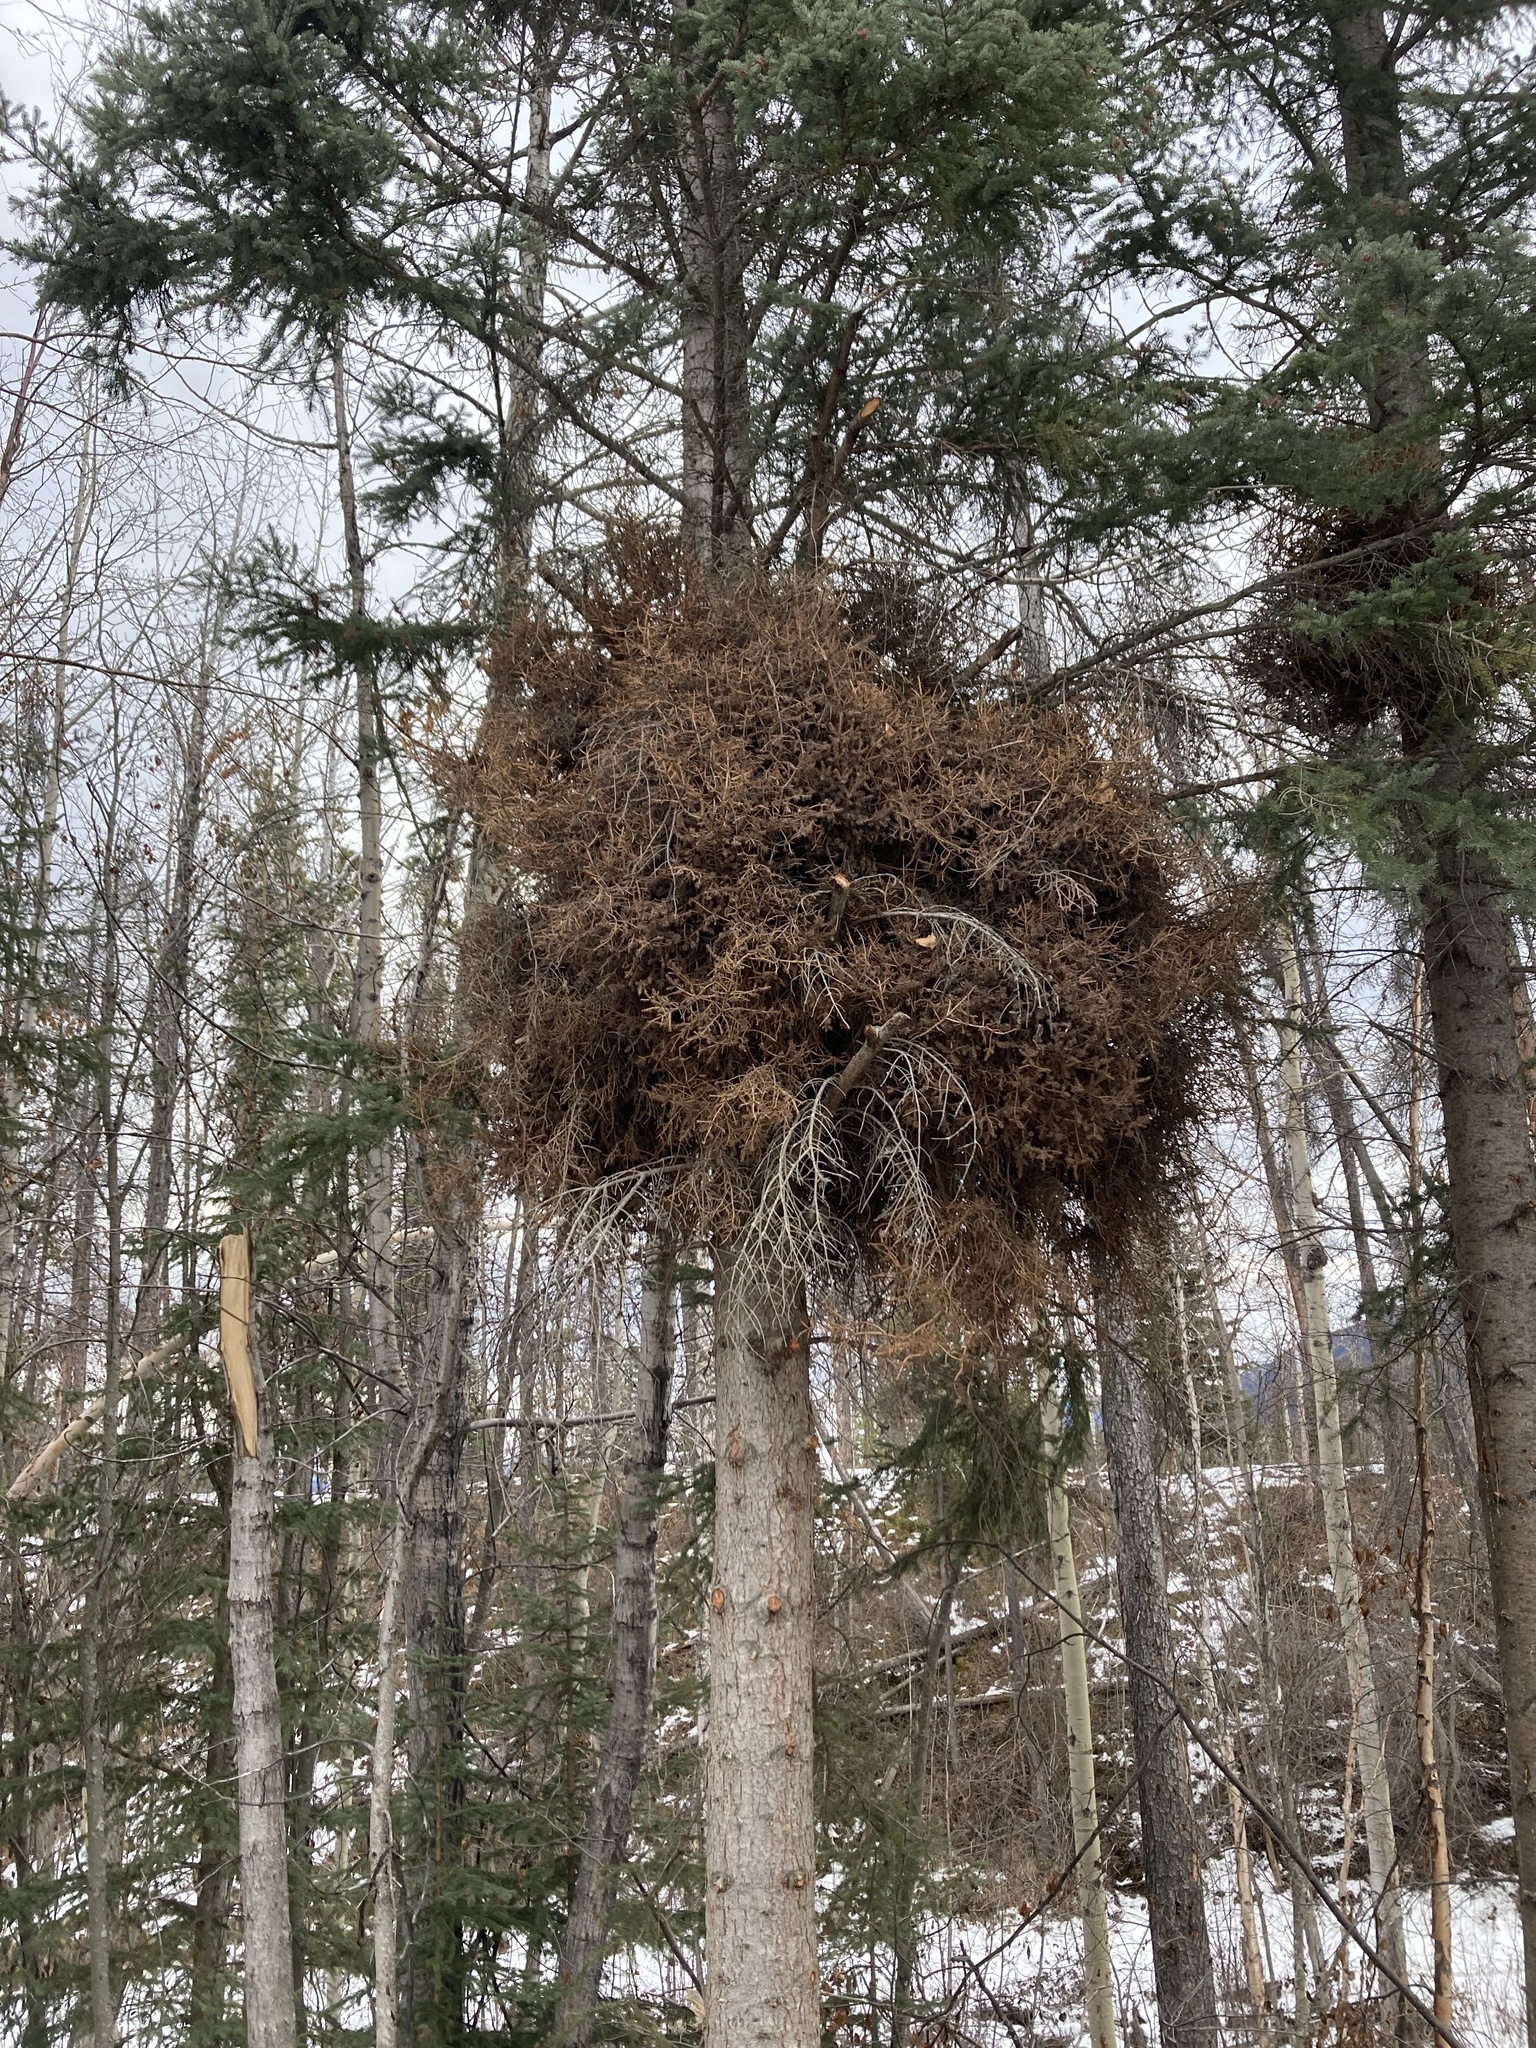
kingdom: Fungi
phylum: Basidiomycota
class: Pucciniomycetes
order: Pucciniales
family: Coleosporiaceae
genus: Chrysomyxa
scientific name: Chrysomyxa arctostaphyli
